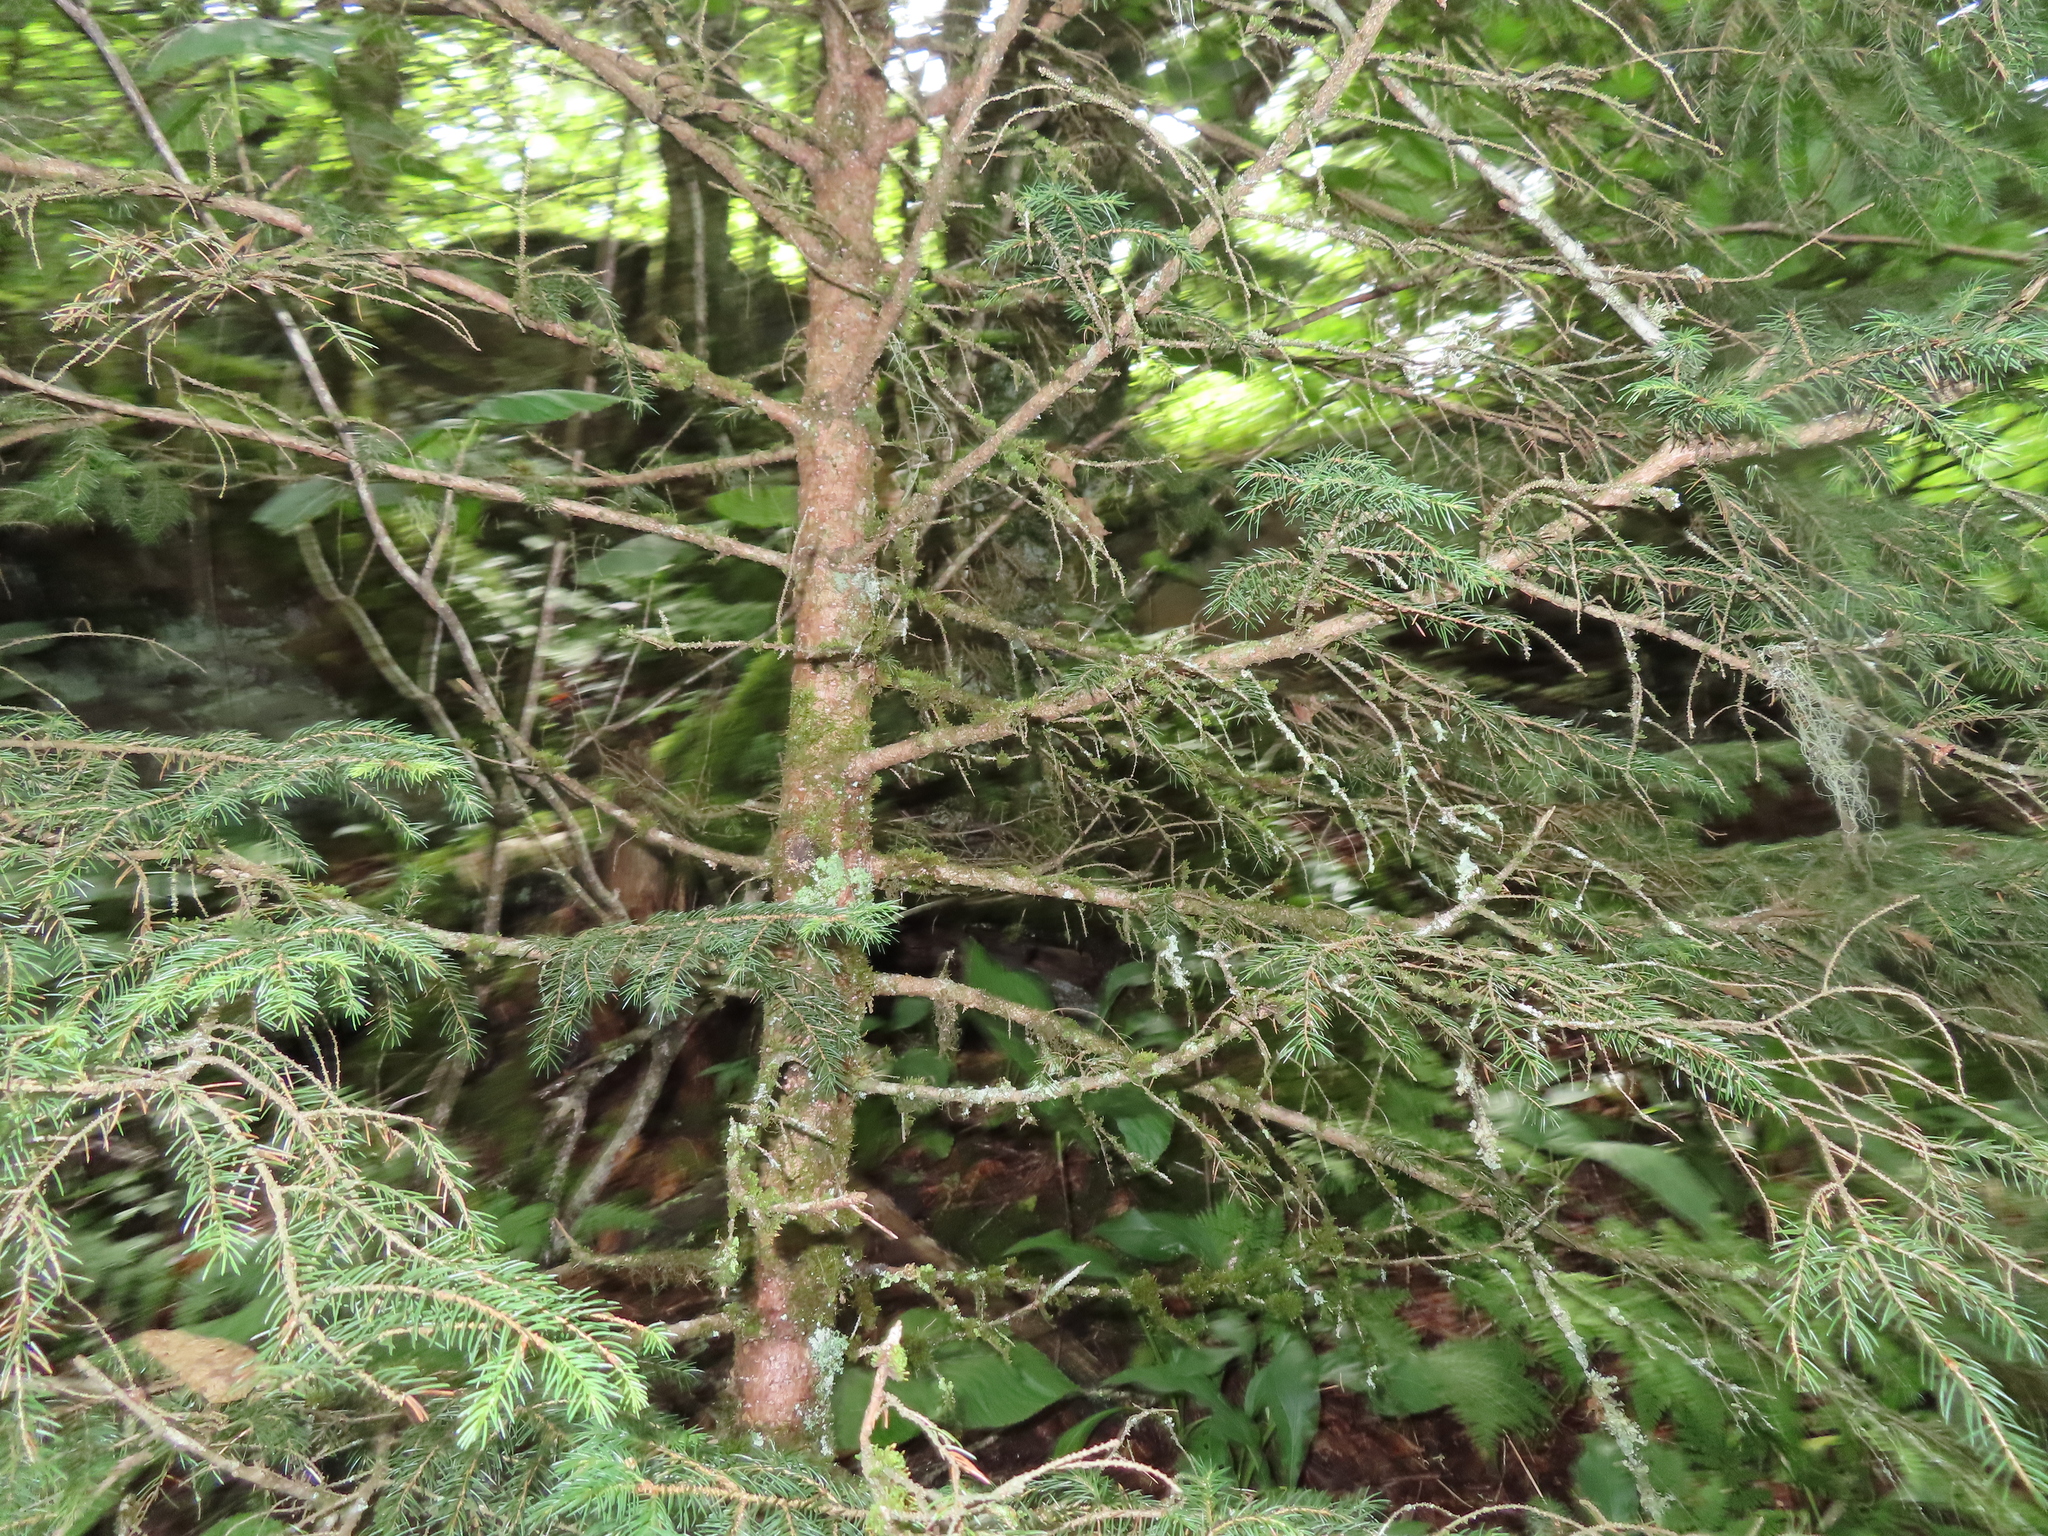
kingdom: Plantae
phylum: Tracheophyta
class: Pinopsida
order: Pinales
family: Pinaceae
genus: Picea
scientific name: Picea abies
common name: Norway spruce
